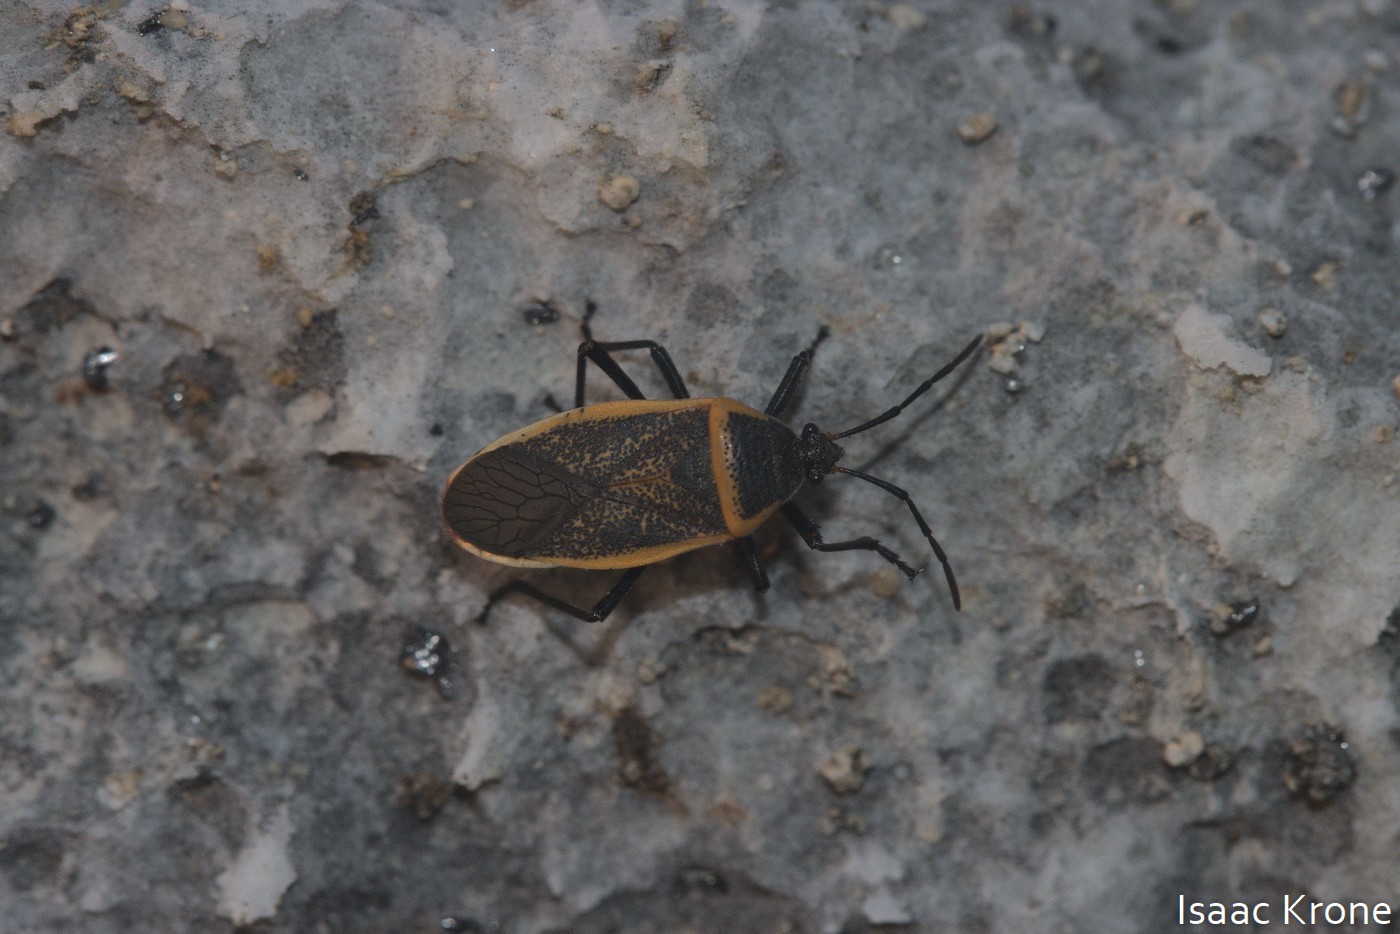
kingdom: Animalia
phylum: Arthropoda
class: Insecta
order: Hemiptera
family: Largidae
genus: Largus
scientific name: Largus californicus
